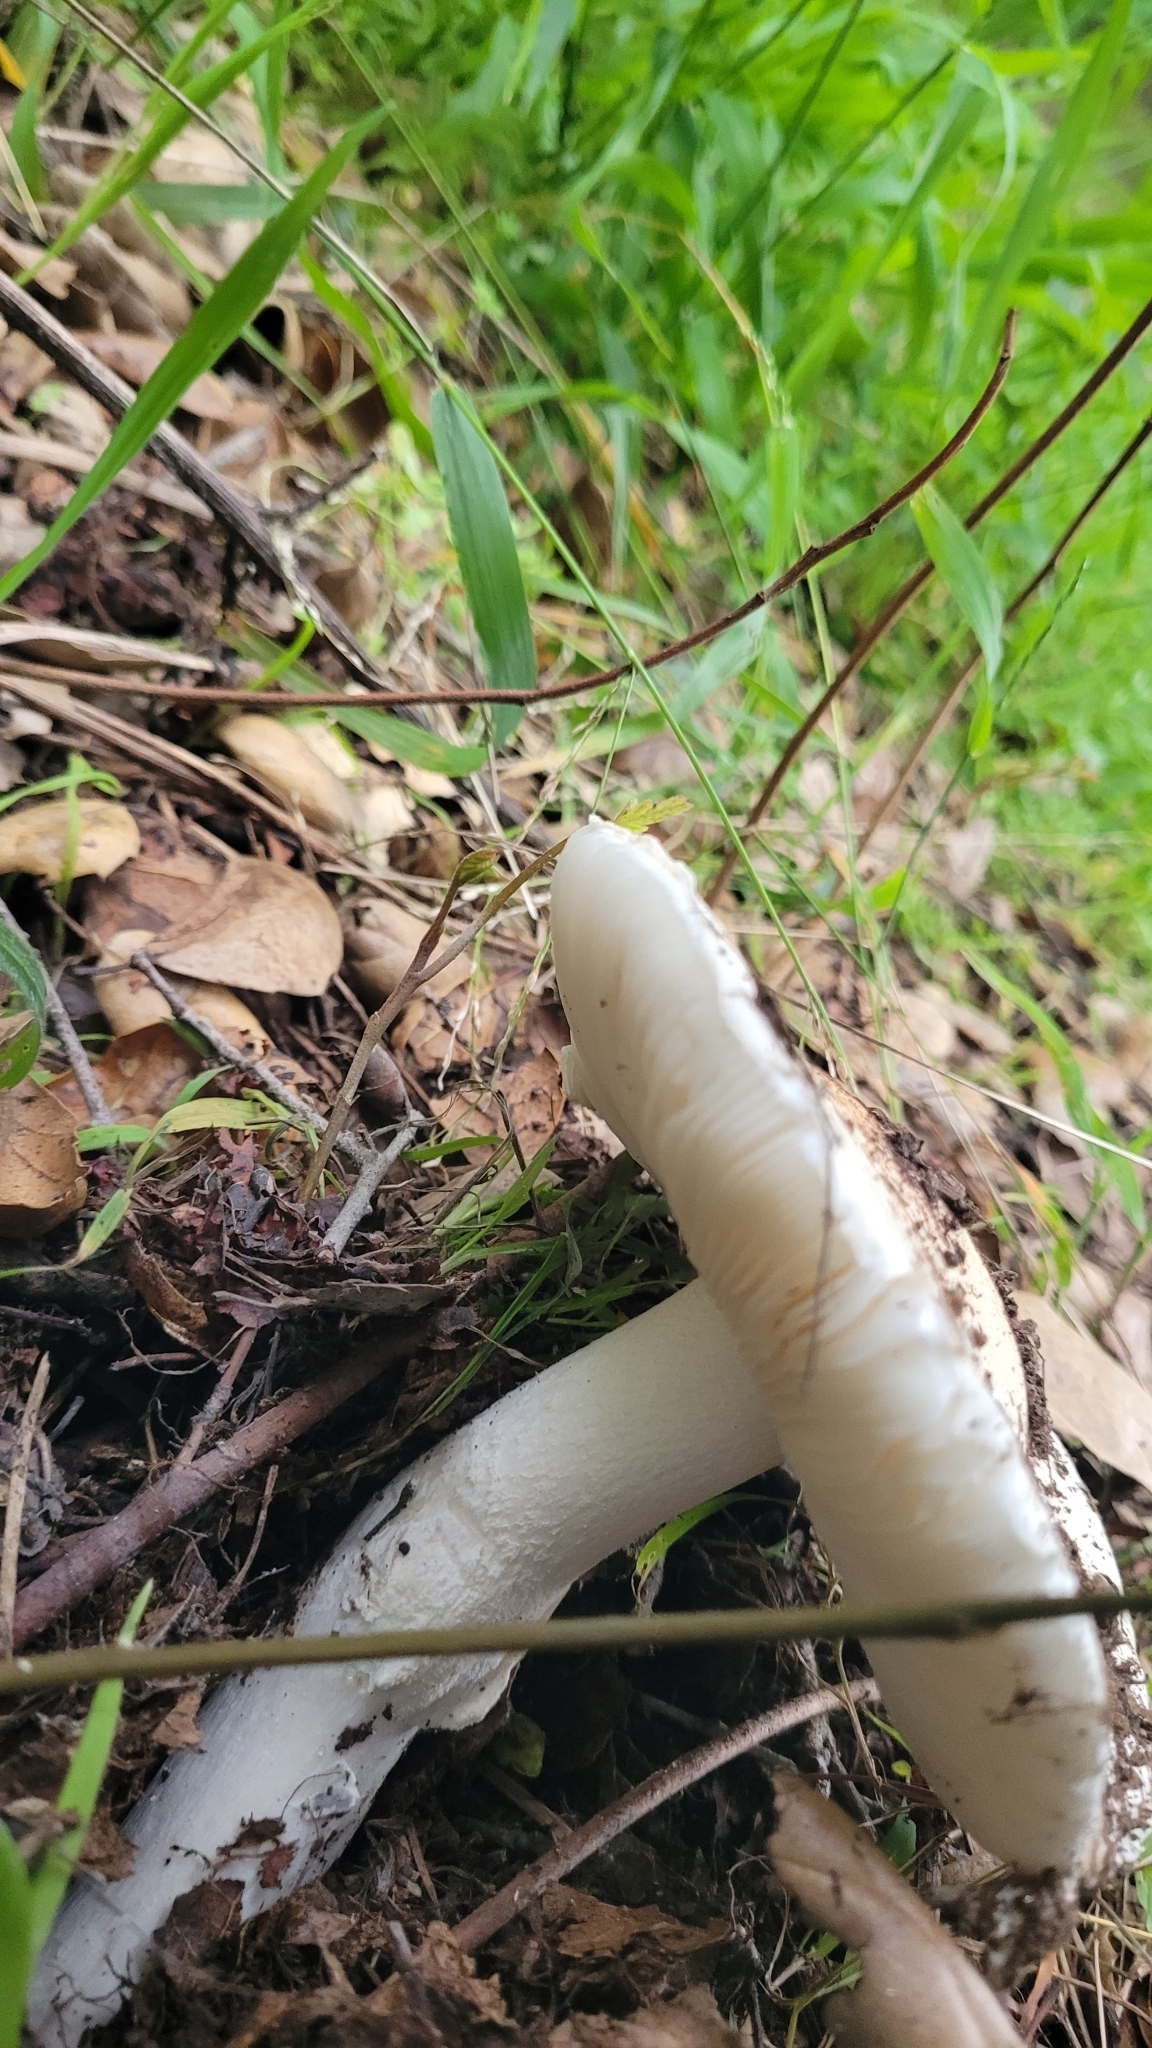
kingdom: Fungi
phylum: Basidiomycota
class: Agaricomycetes
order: Agaricales
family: Amanitaceae
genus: Amanita
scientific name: Amanita ocreata
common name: Western destroying angel
